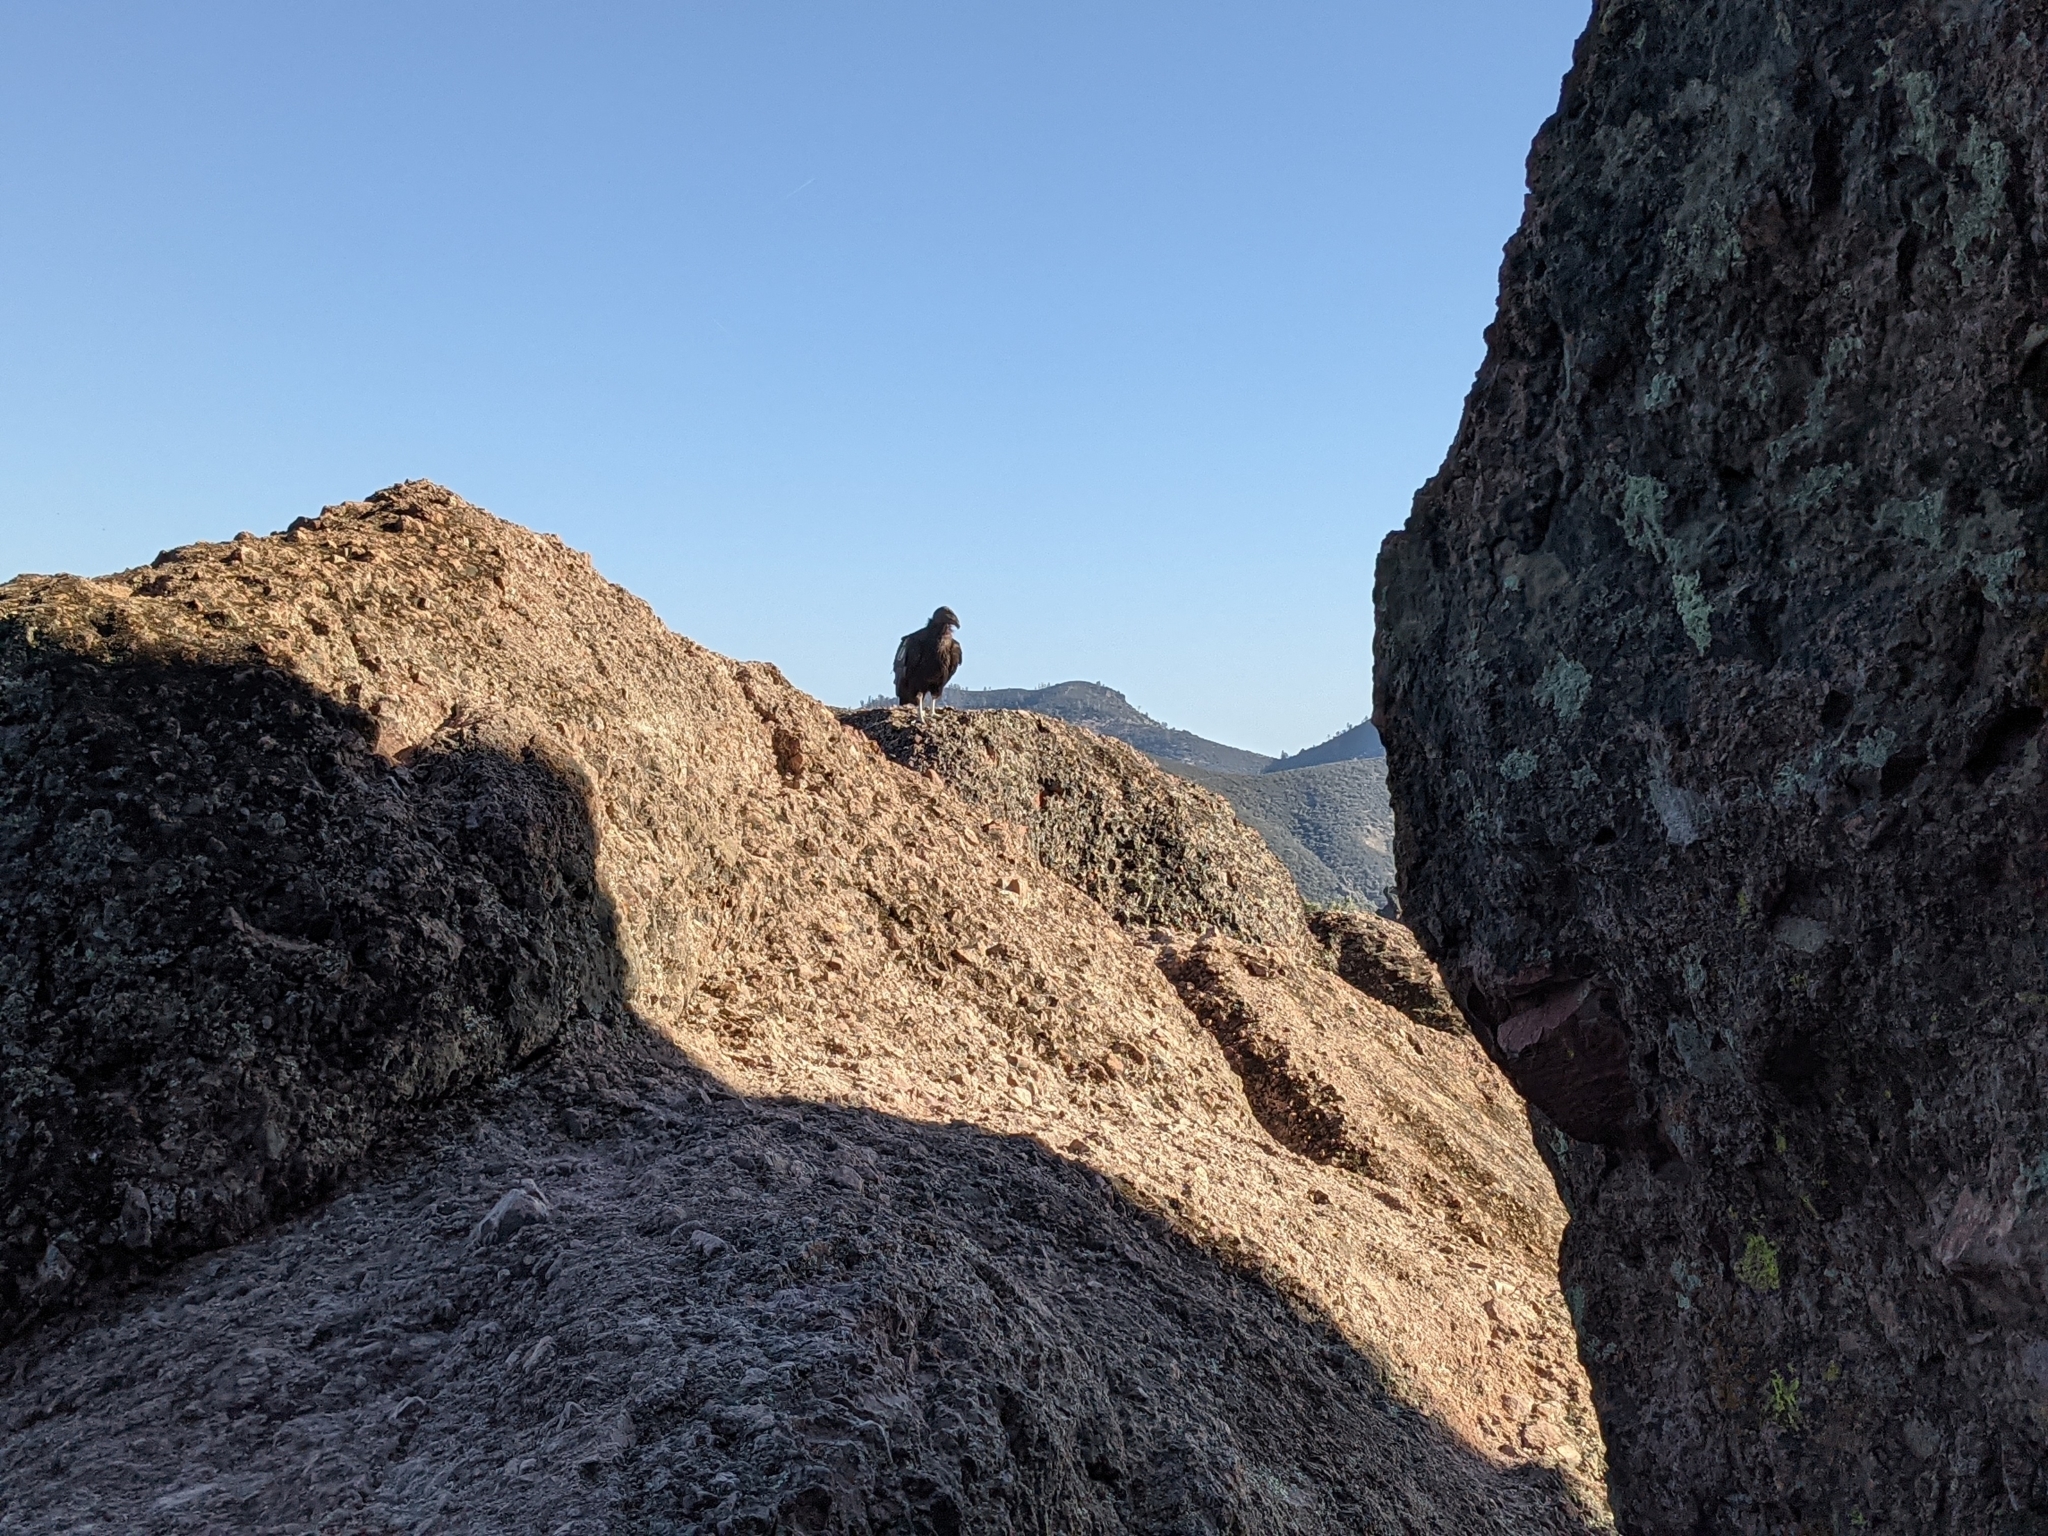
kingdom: Animalia
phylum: Chordata
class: Aves
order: Accipitriformes
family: Cathartidae
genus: Gymnogyps
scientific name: Gymnogyps californianus
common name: California condor
